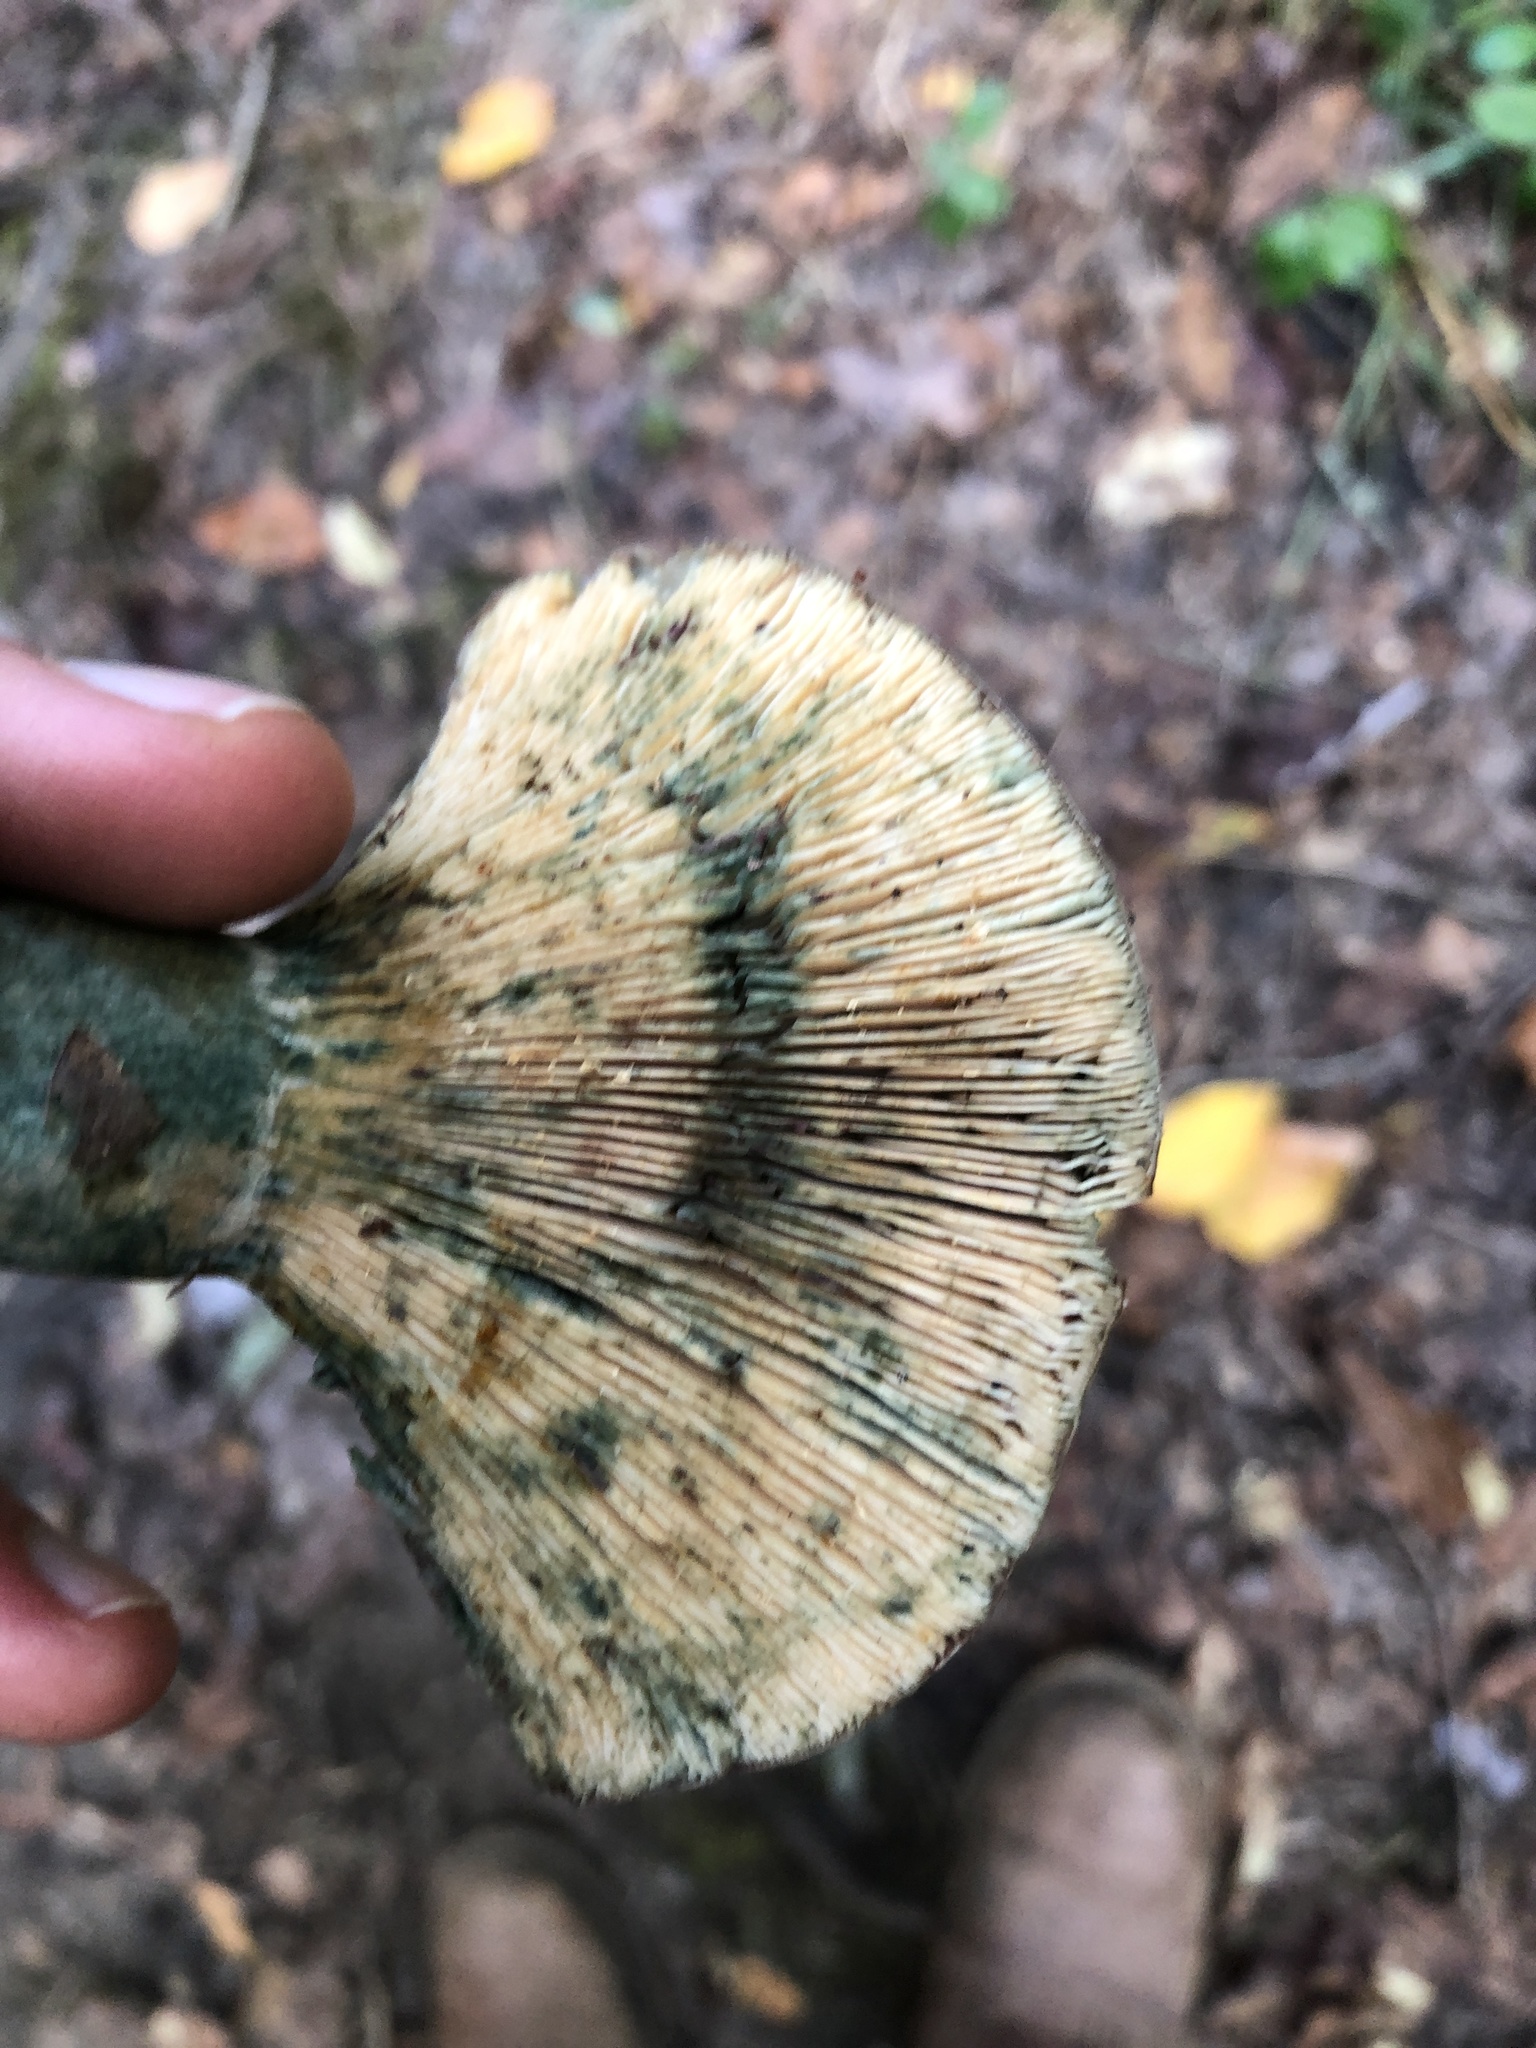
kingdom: Fungi
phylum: Basidiomycota
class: Agaricomycetes
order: Russulales
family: Russulaceae
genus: Lactarius
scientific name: Lactarius chelidonium
